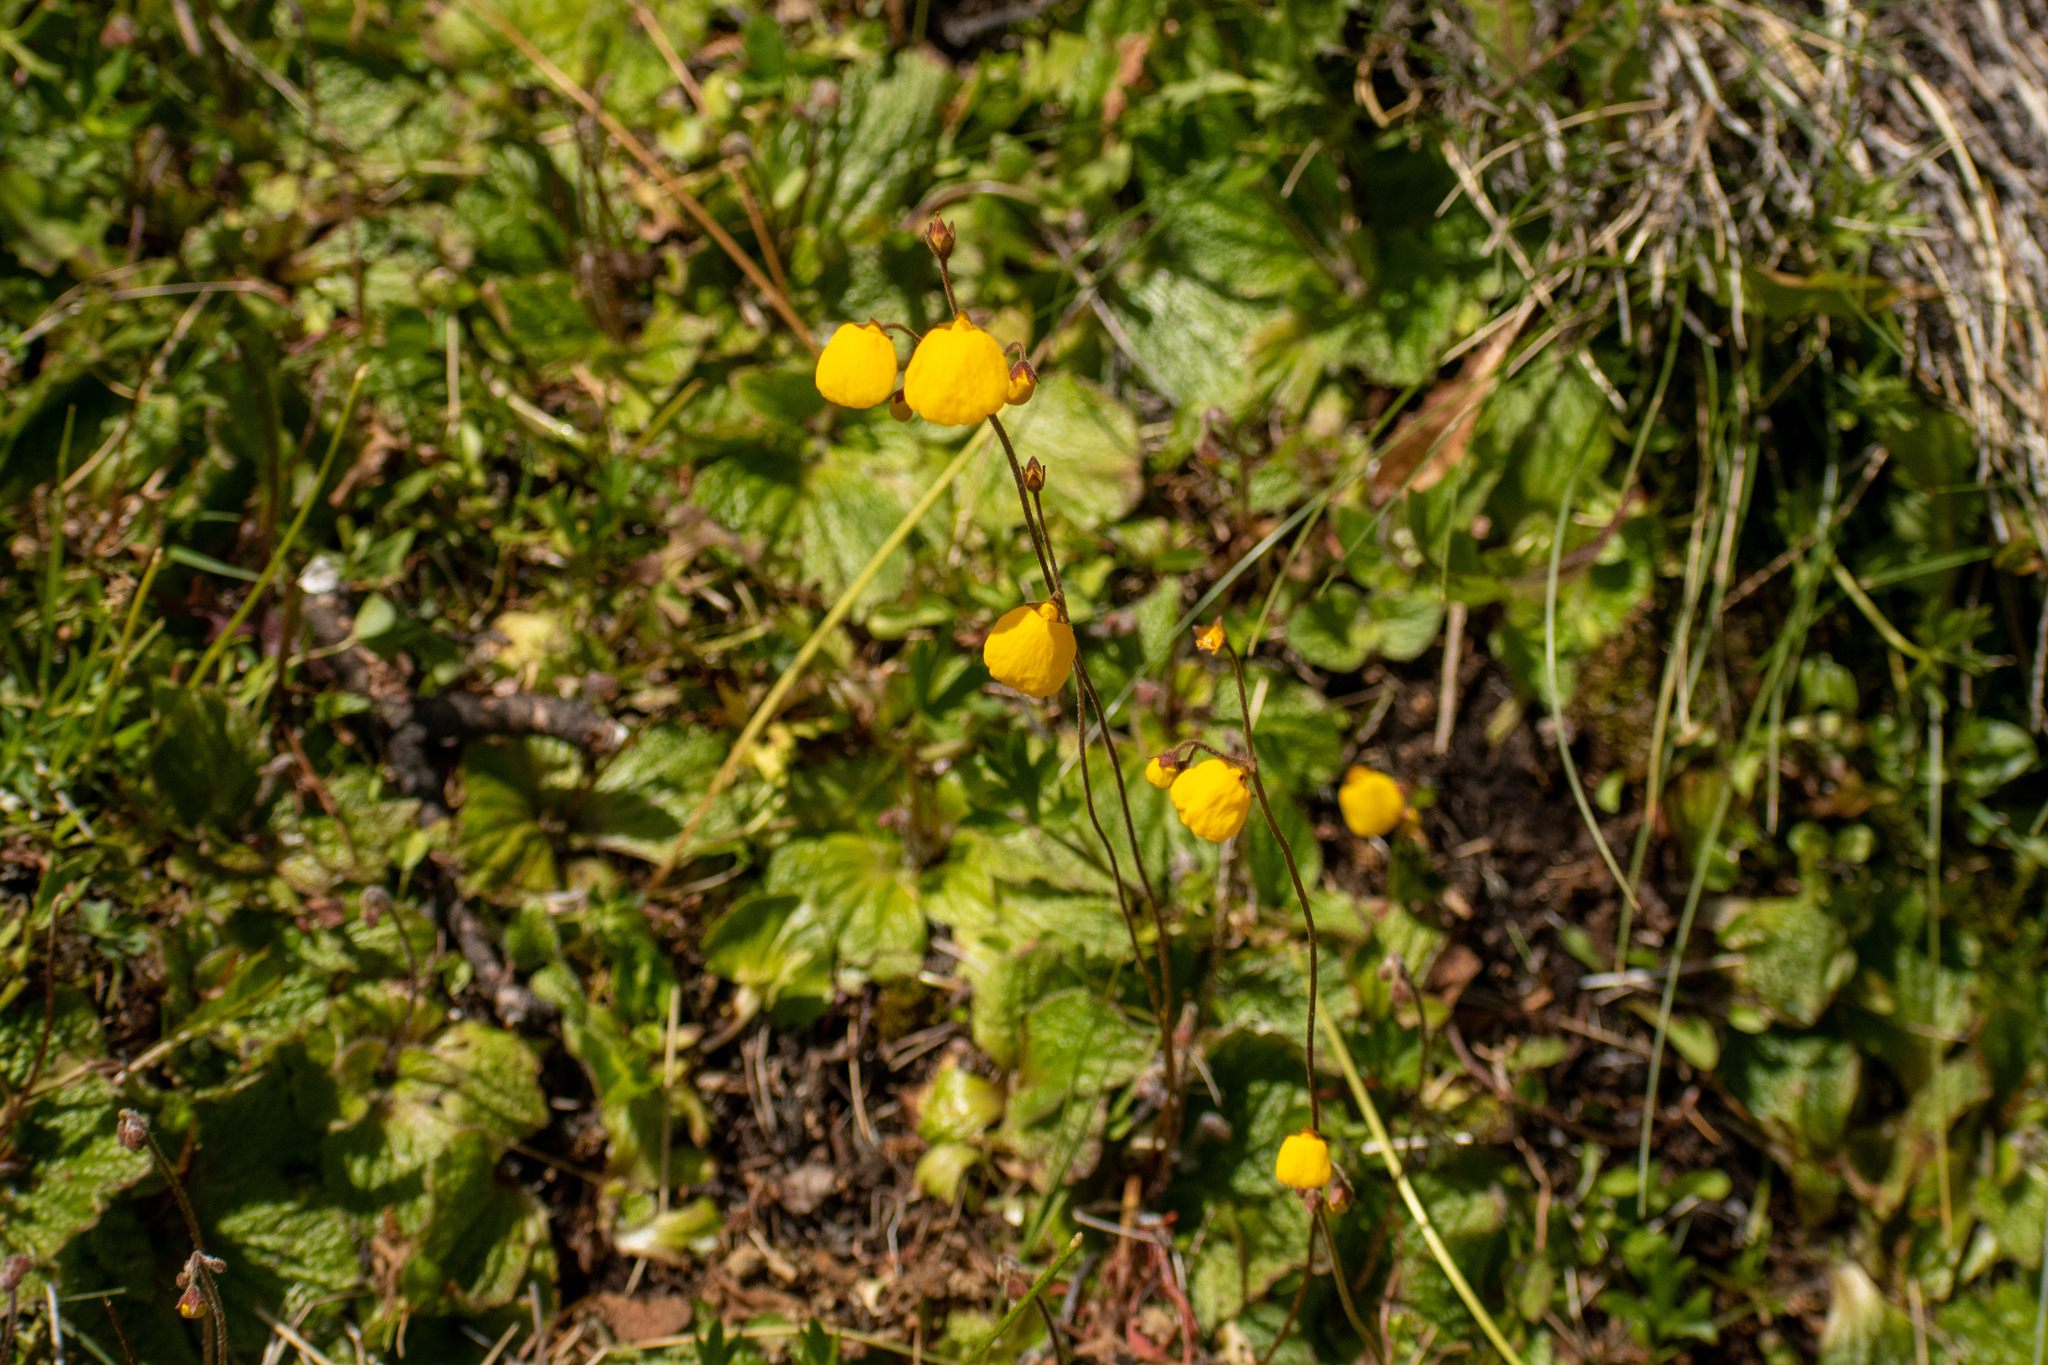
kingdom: Plantae
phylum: Tracheophyta
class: Magnoliopsida
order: Lamiales
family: Calceolariaceae
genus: Calceolaria
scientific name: Calceolaria filicaulis
